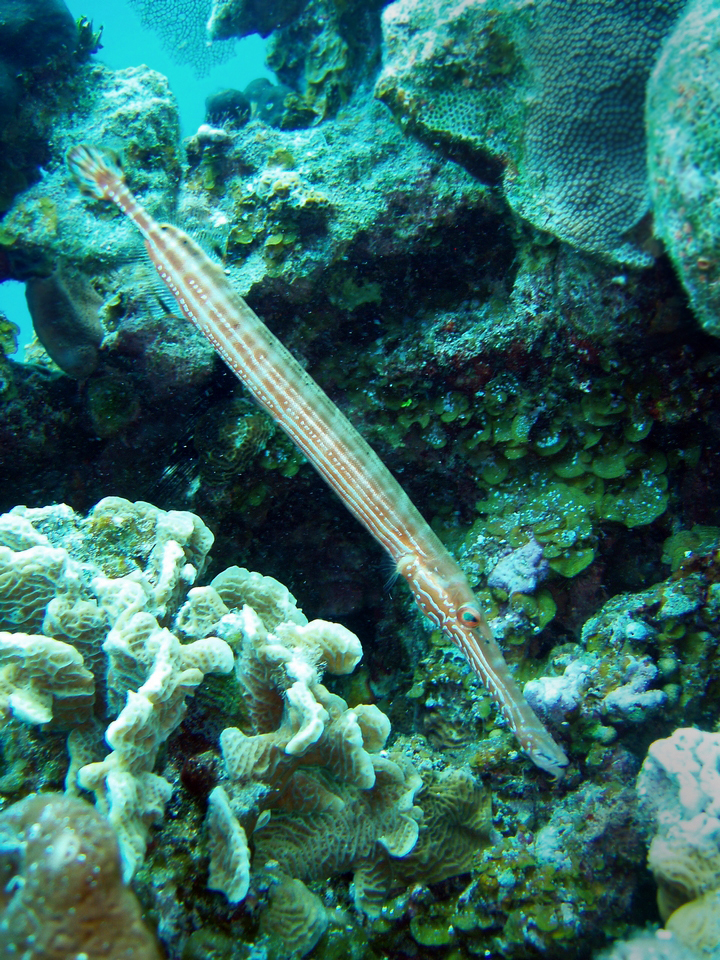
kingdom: Animalia
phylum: Chordata
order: Syngnathiformes
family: Aulostomidae
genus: Aulostomus
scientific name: Aulostomus maculatus
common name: West atlantic trumpetfish
